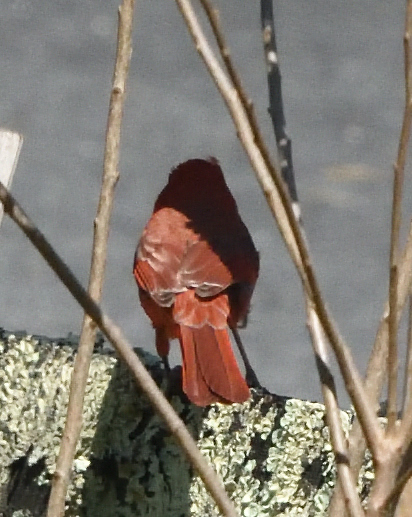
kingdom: Animalia
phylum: Chordata
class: Aves
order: Passeriformes
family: Cardinalidae
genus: Cardinalis
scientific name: Cardinalis cardinalis
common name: Northern cardinal
